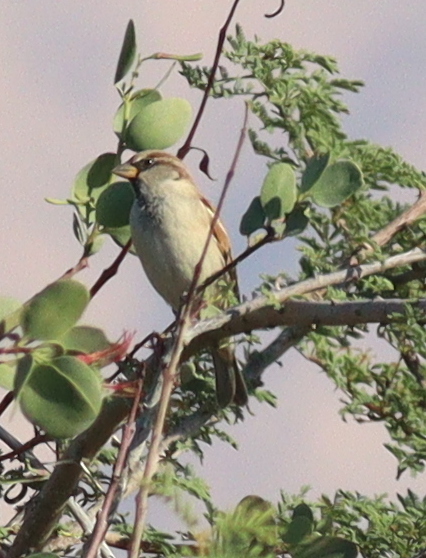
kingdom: Animalia
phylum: Chordata
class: Aves
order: Passeriformes
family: Passeridae
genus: Passer
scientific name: Passer domesticus
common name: House sparrow
